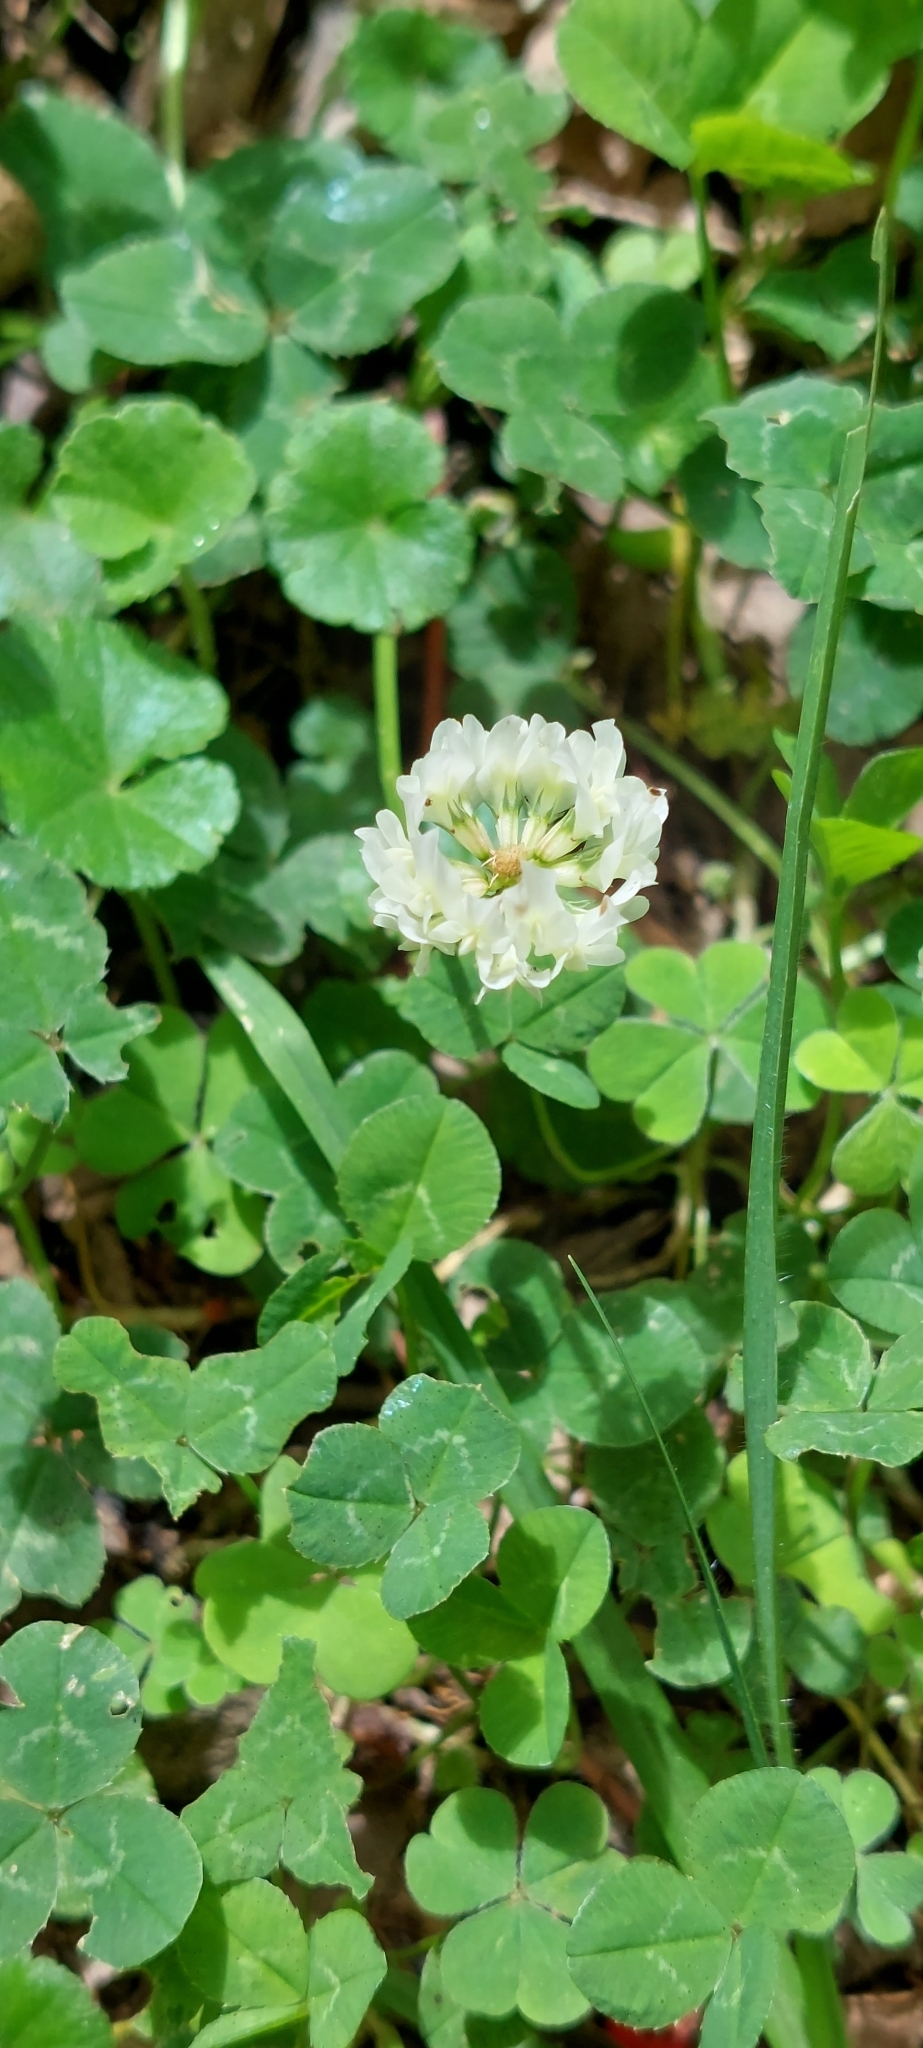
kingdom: Plantae
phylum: Tracheophyta
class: Magnoliopsida
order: Fabales
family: Fabaceae
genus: Trifolium
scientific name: Trifolium repens
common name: White clover
